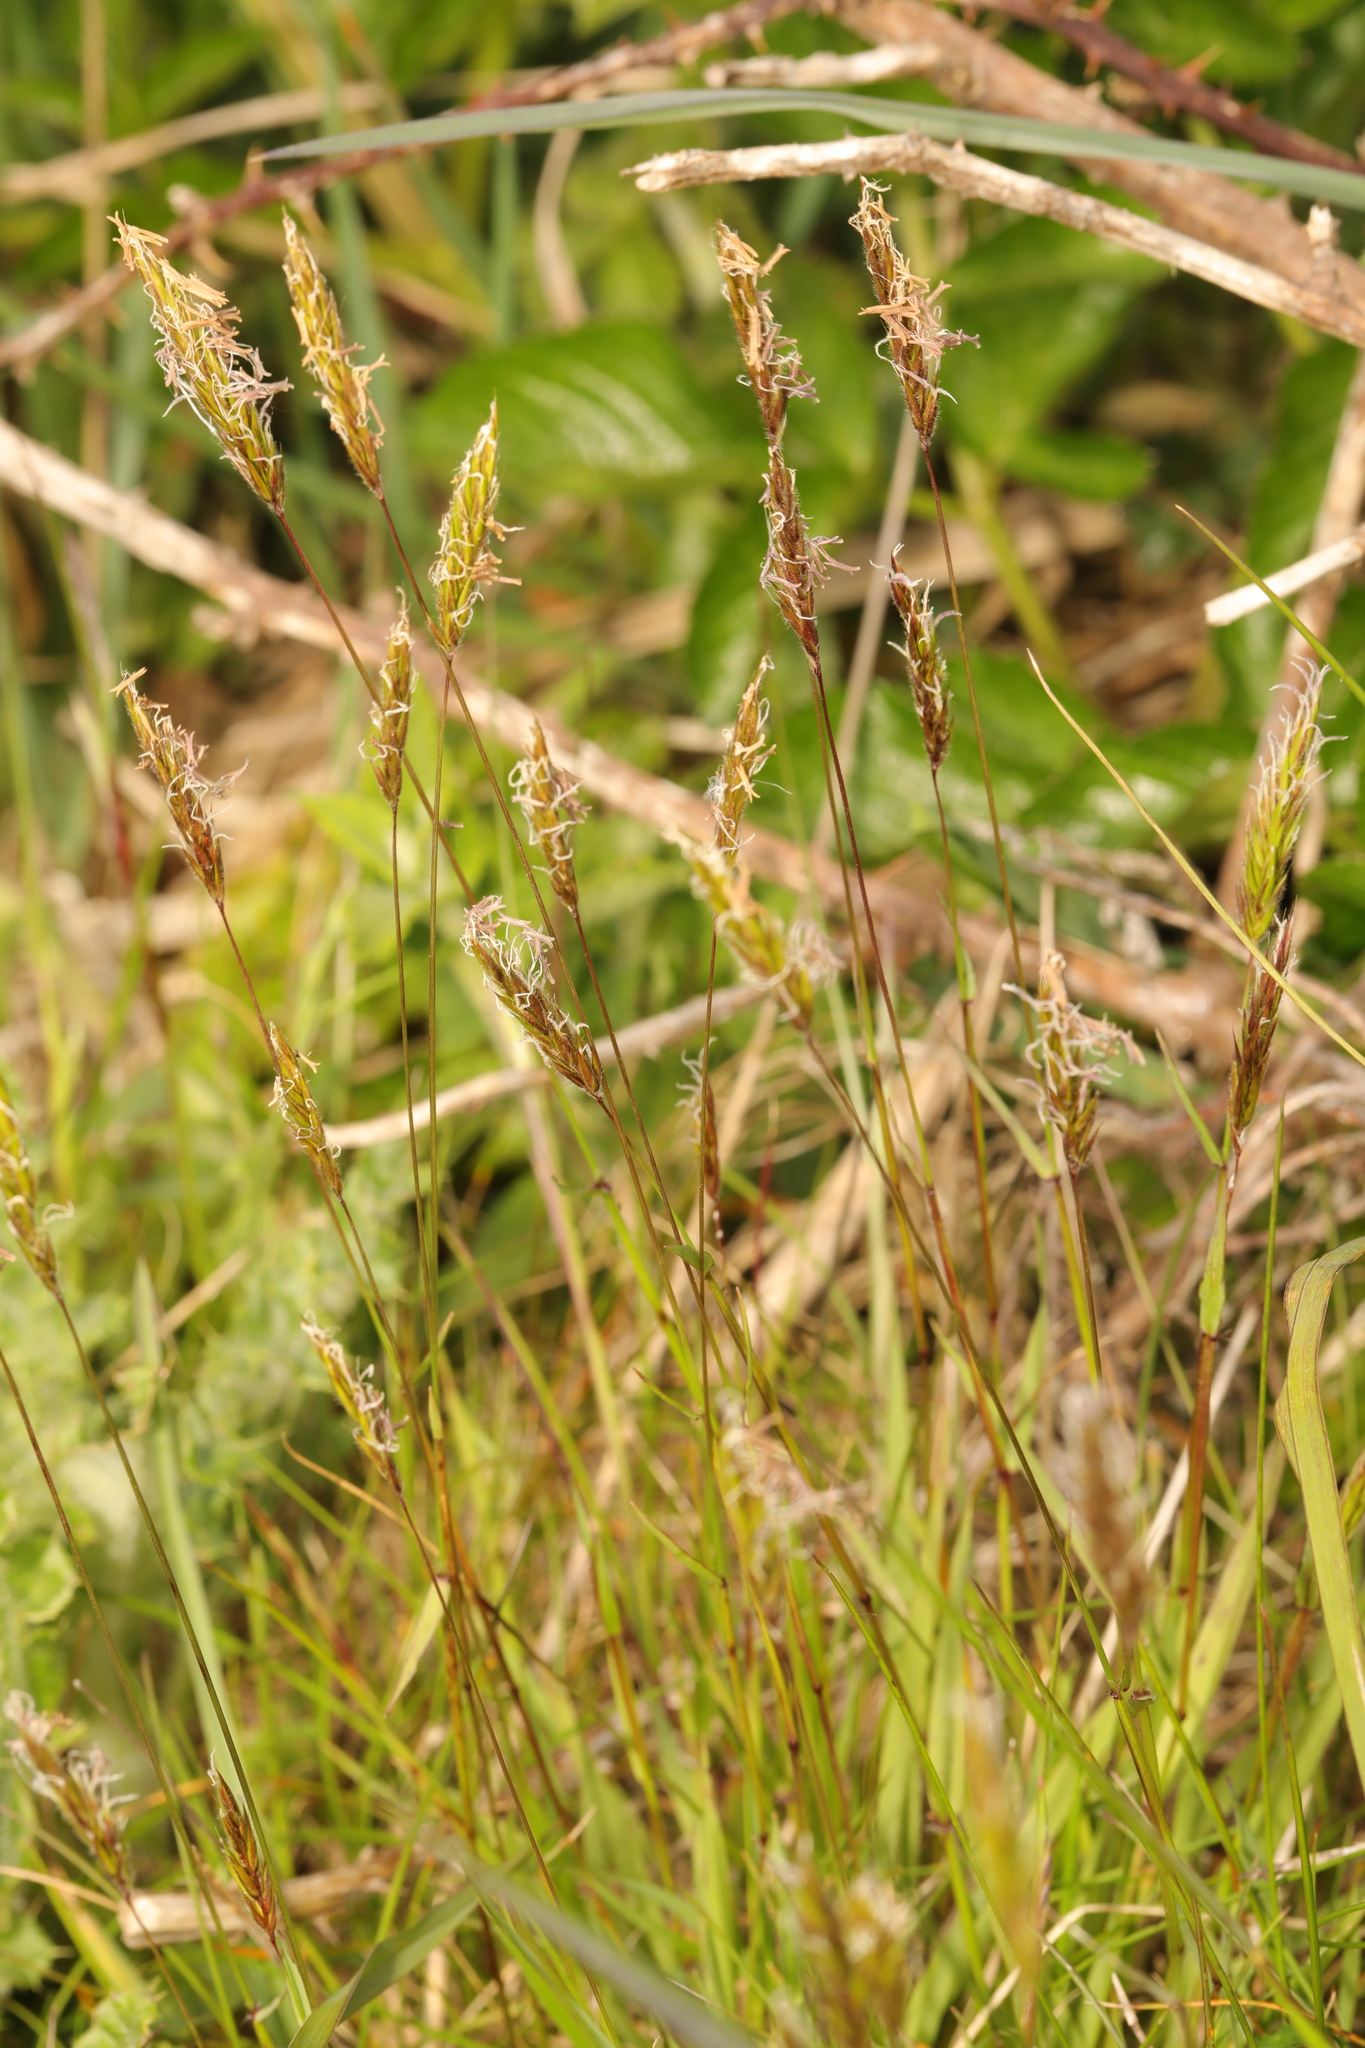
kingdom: Plantae
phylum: Tracheophyta
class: Liliopsida
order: Poales
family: Poaceae
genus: Anthoxanthum
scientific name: Anthoxanthum odoratum
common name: Sweet vernalgrass
